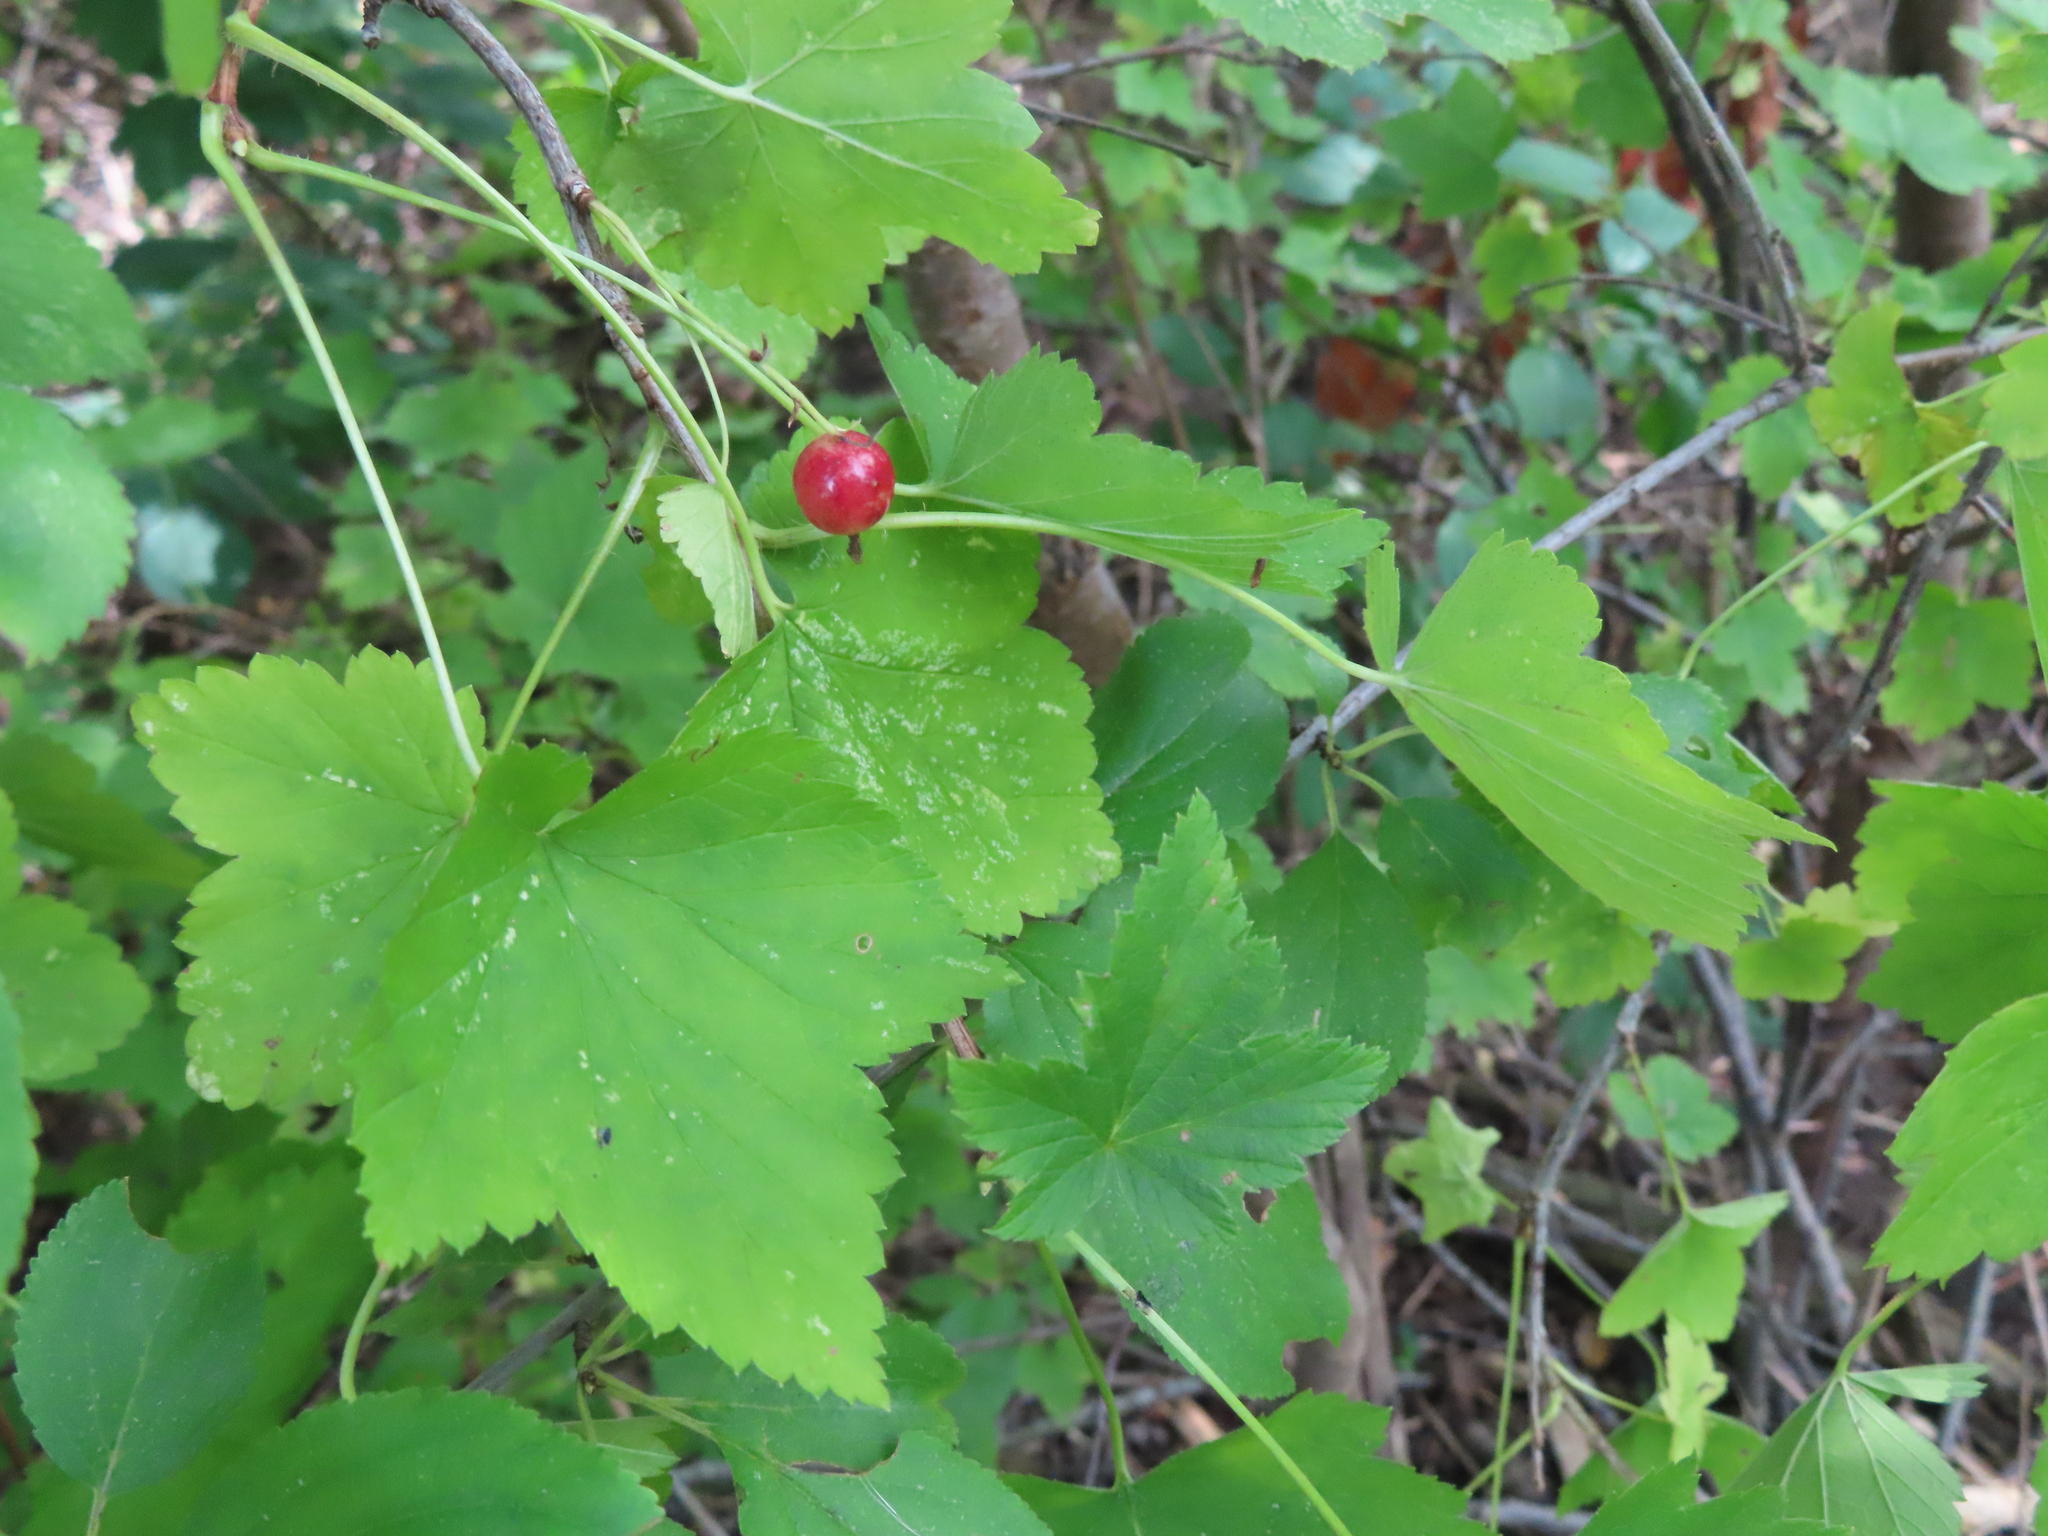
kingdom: Plantae
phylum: Tracheophyta
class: Magnoliopsida
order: Saxifragales
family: Grossulariaceae
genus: Ribes
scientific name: Ribes americanum
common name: American black currant
